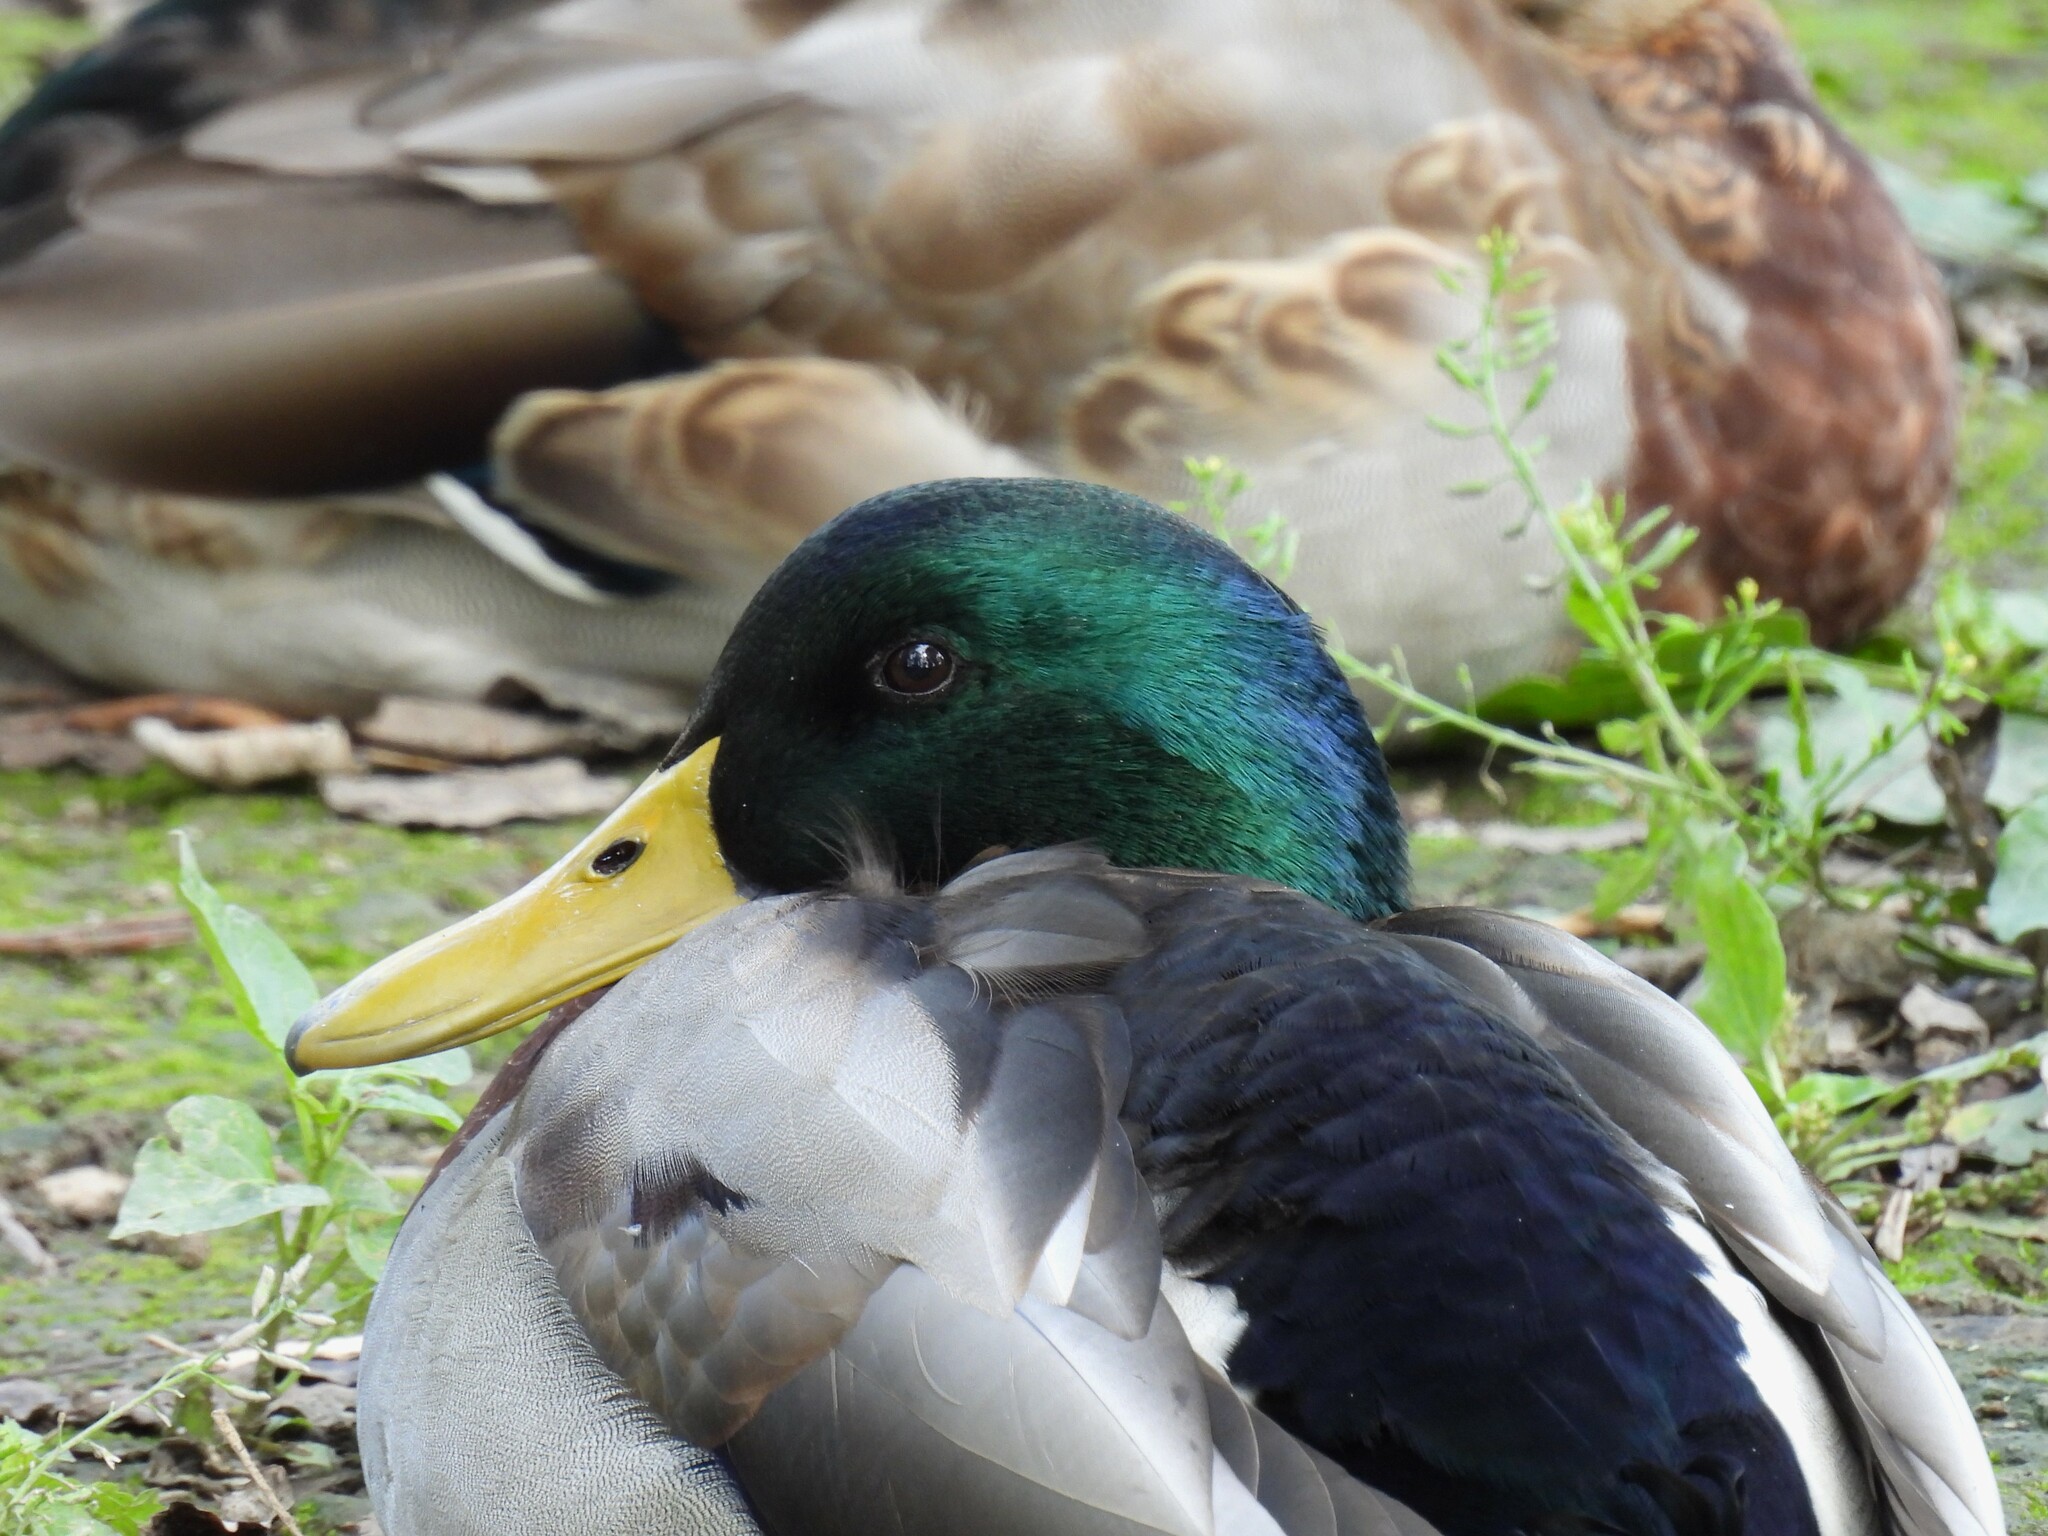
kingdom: Animalia
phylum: Chordata
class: Aves
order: Anseriformes
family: Anatidae
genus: Anas
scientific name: Anas platyrhynchos
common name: Mallard
